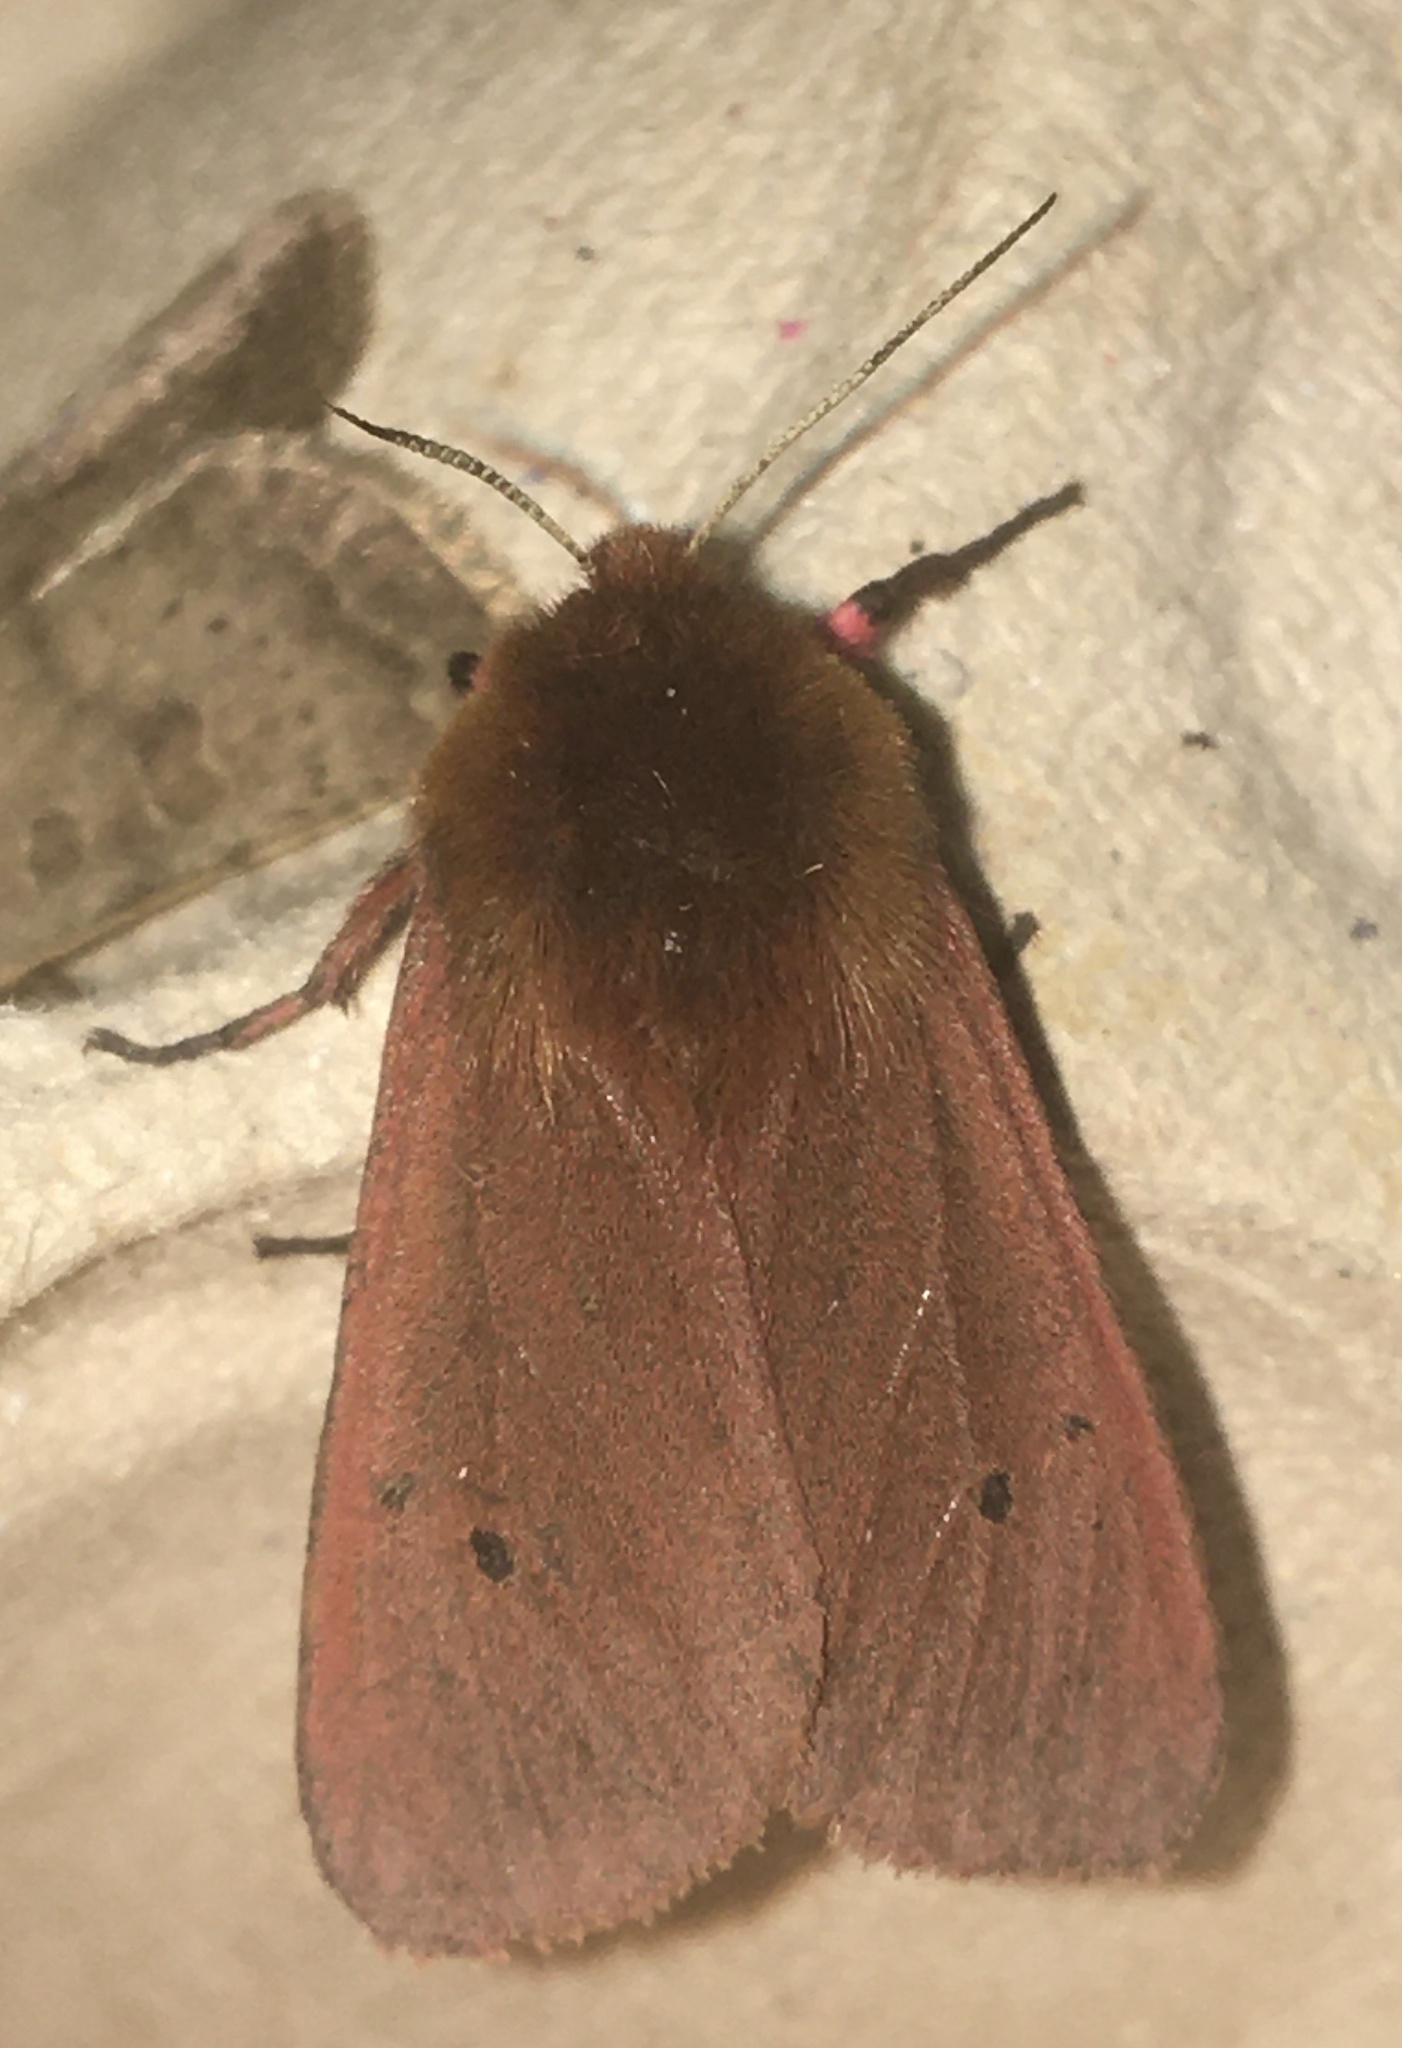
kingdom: Animalia
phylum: Arthropoda
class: Insecta
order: Lepidoptera
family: Erebidae
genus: Phragmatobia
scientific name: Phragmatobia fuliginosa
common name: Ruby tiger
